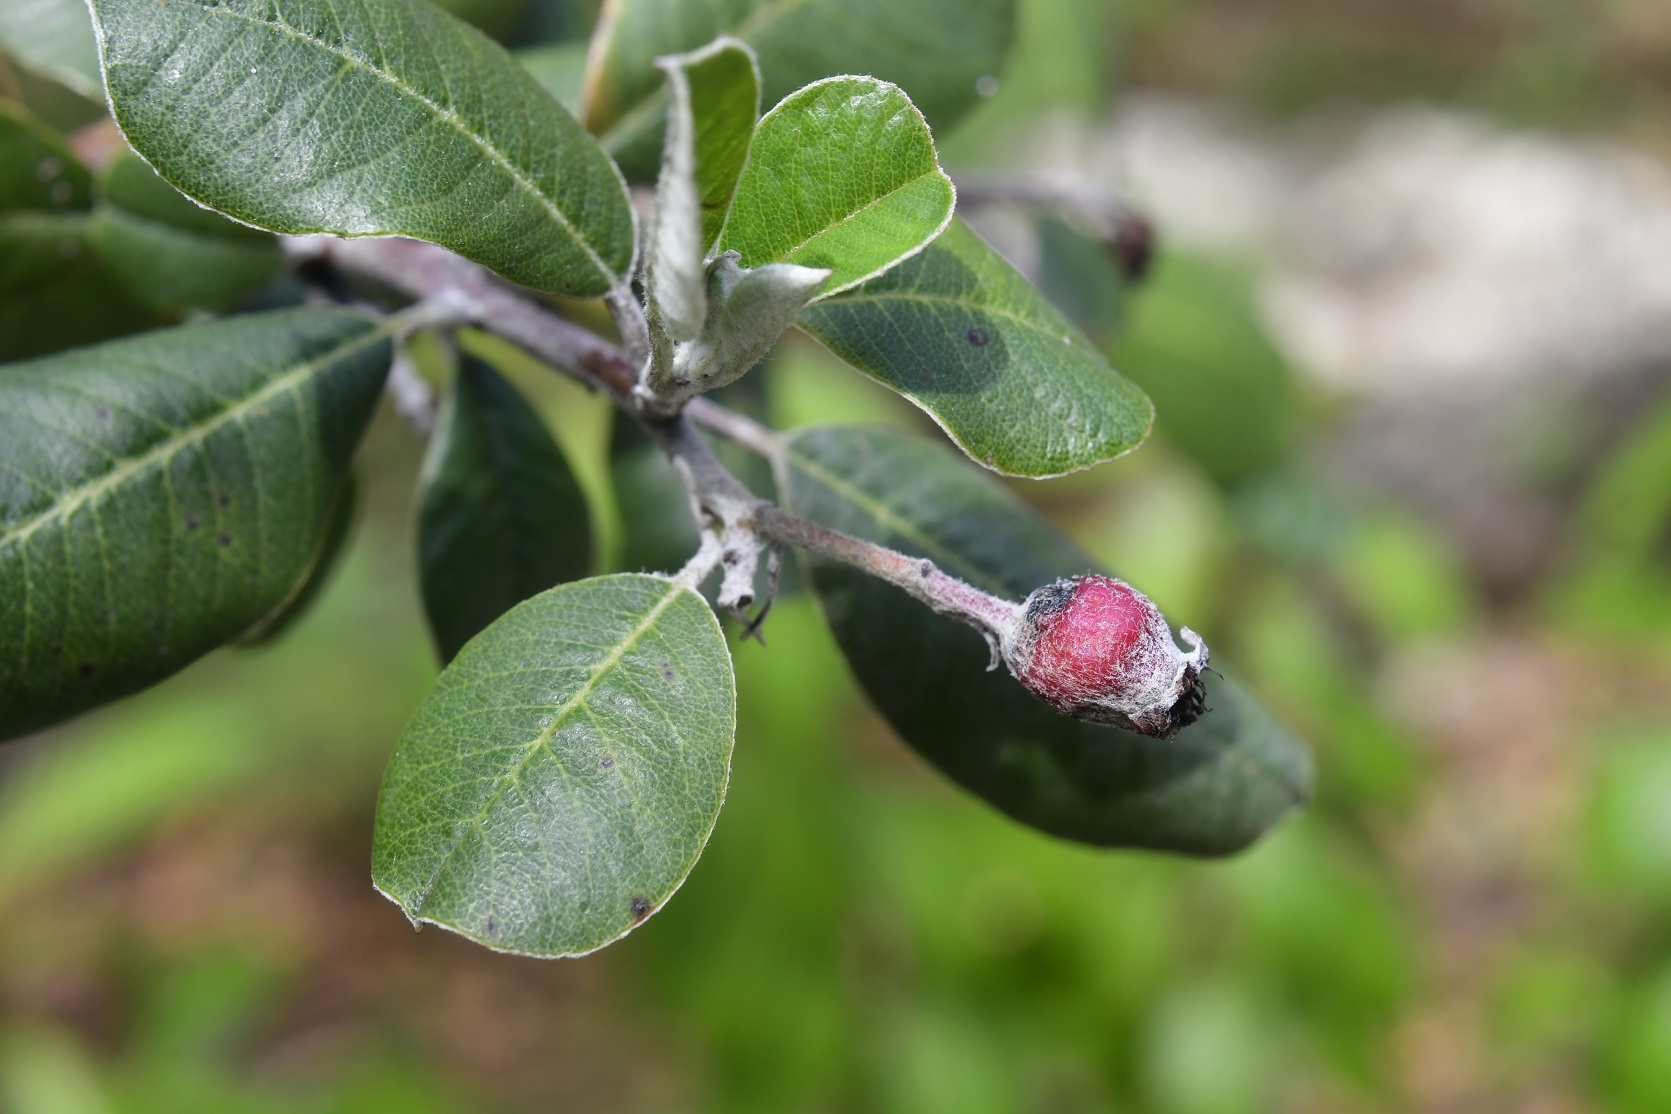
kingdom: Plantae
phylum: Tracheophyta
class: Magnoliopsida
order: Rosales
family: Rosaceae
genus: Malacomeles
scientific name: Malacomeles nervosa
